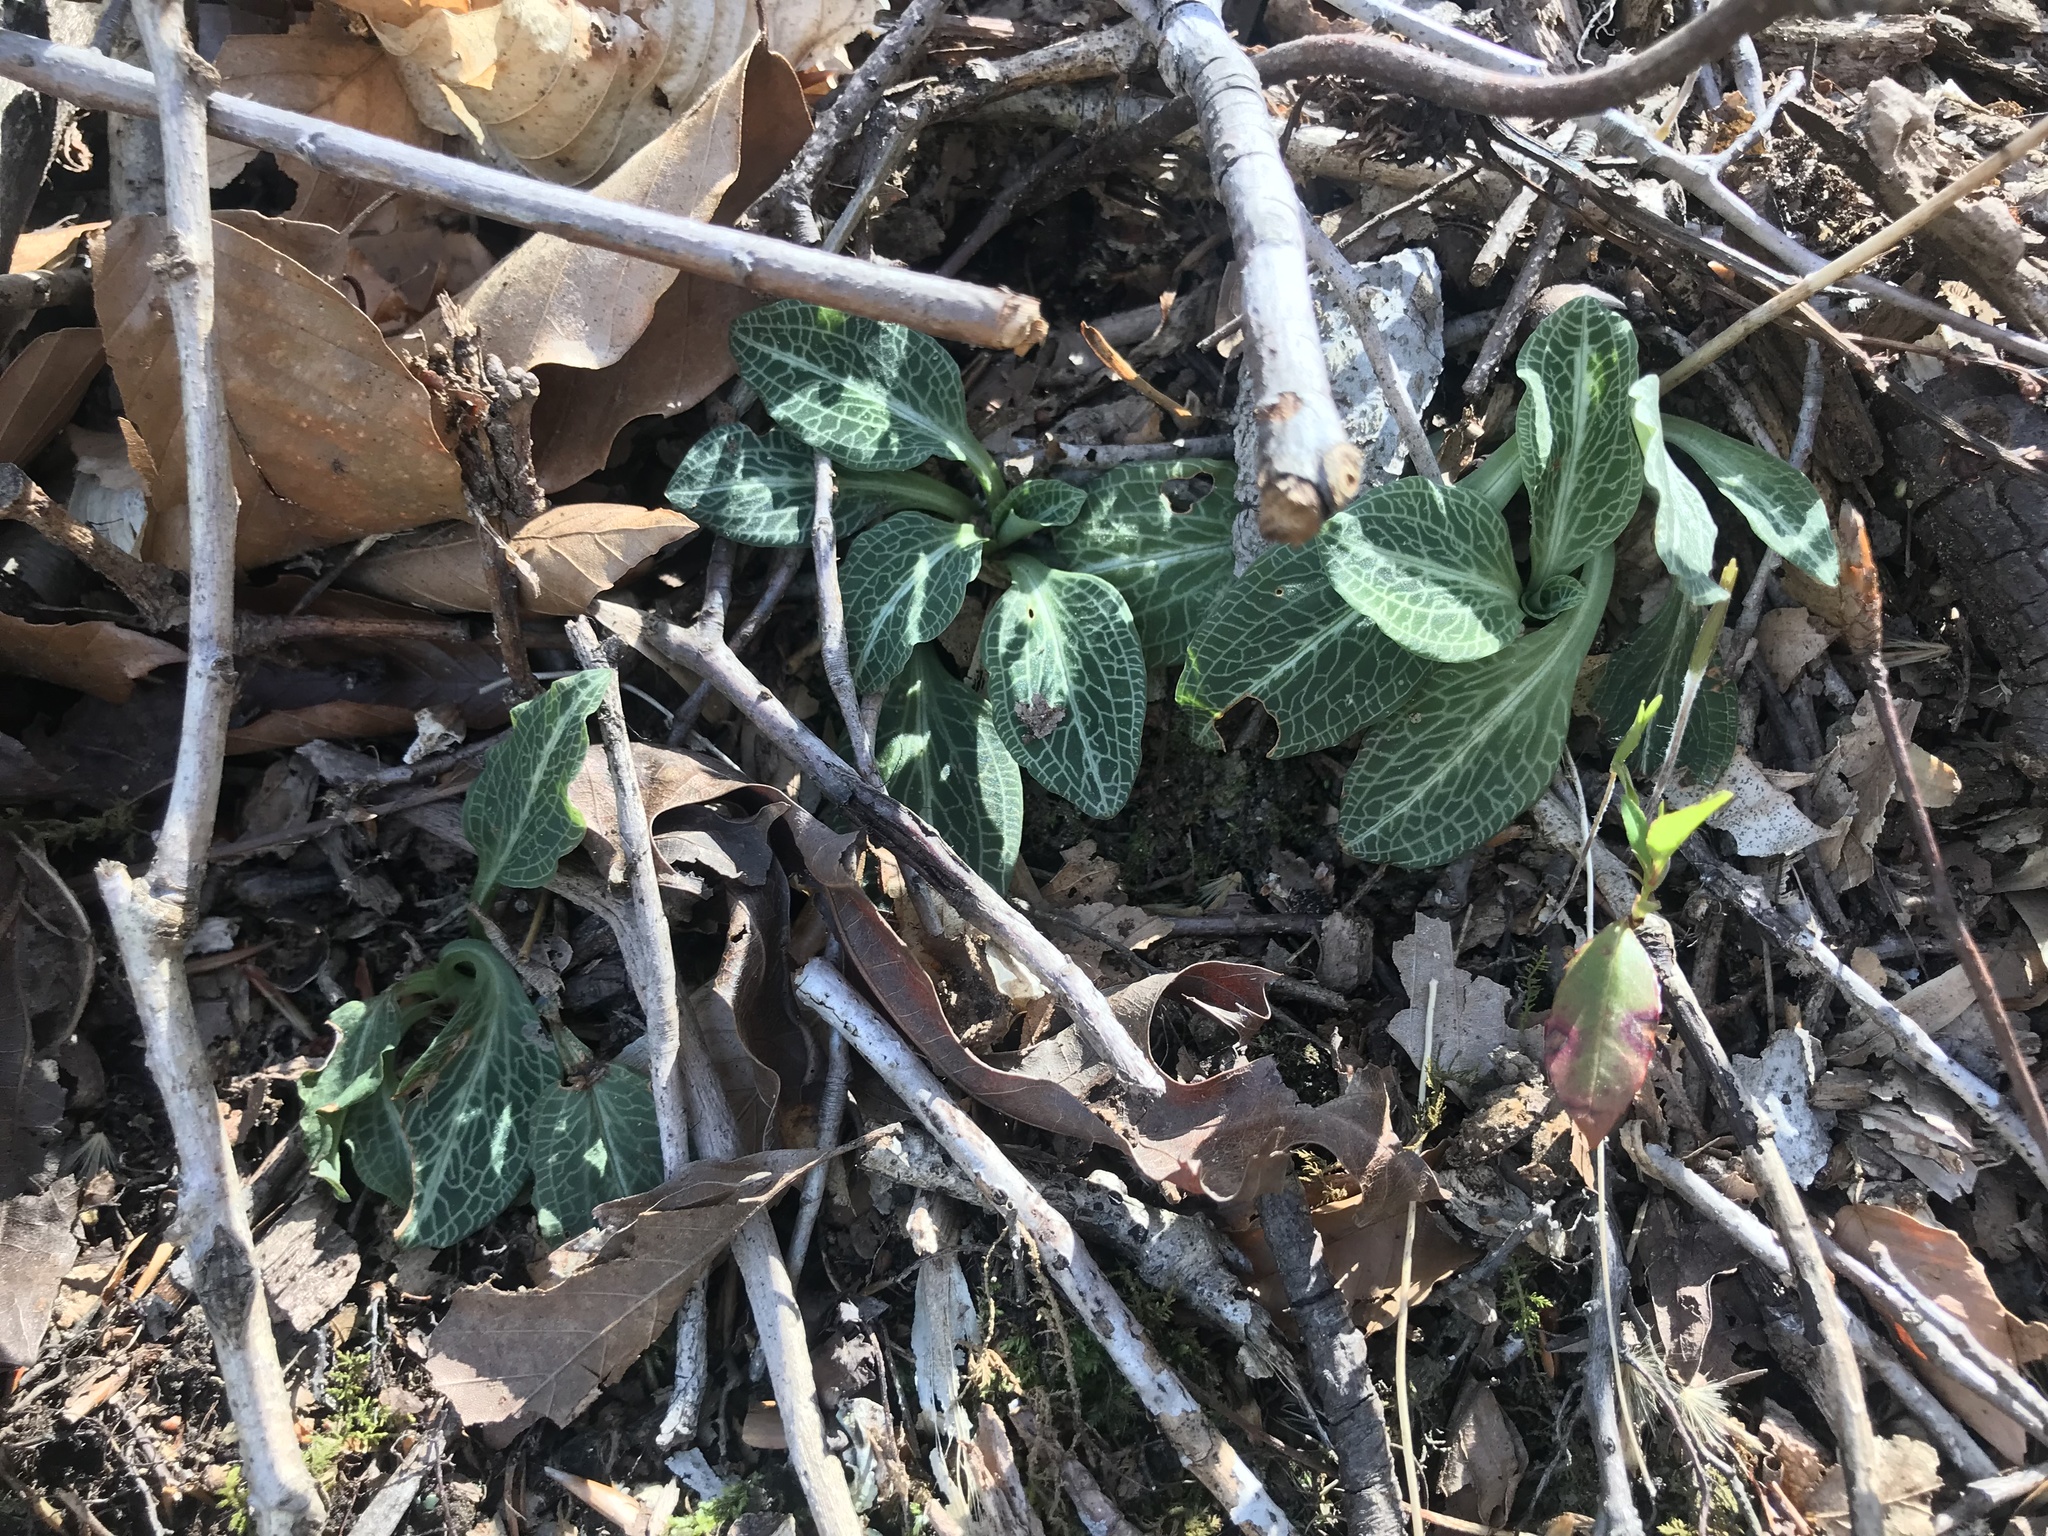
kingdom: Plantae
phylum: Tracheophyta
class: Liliopsida
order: Asparagales
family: Orchidaceae
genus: Goodyera
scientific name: Goodyera pubescens
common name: Downy rattlesnake-plantain
